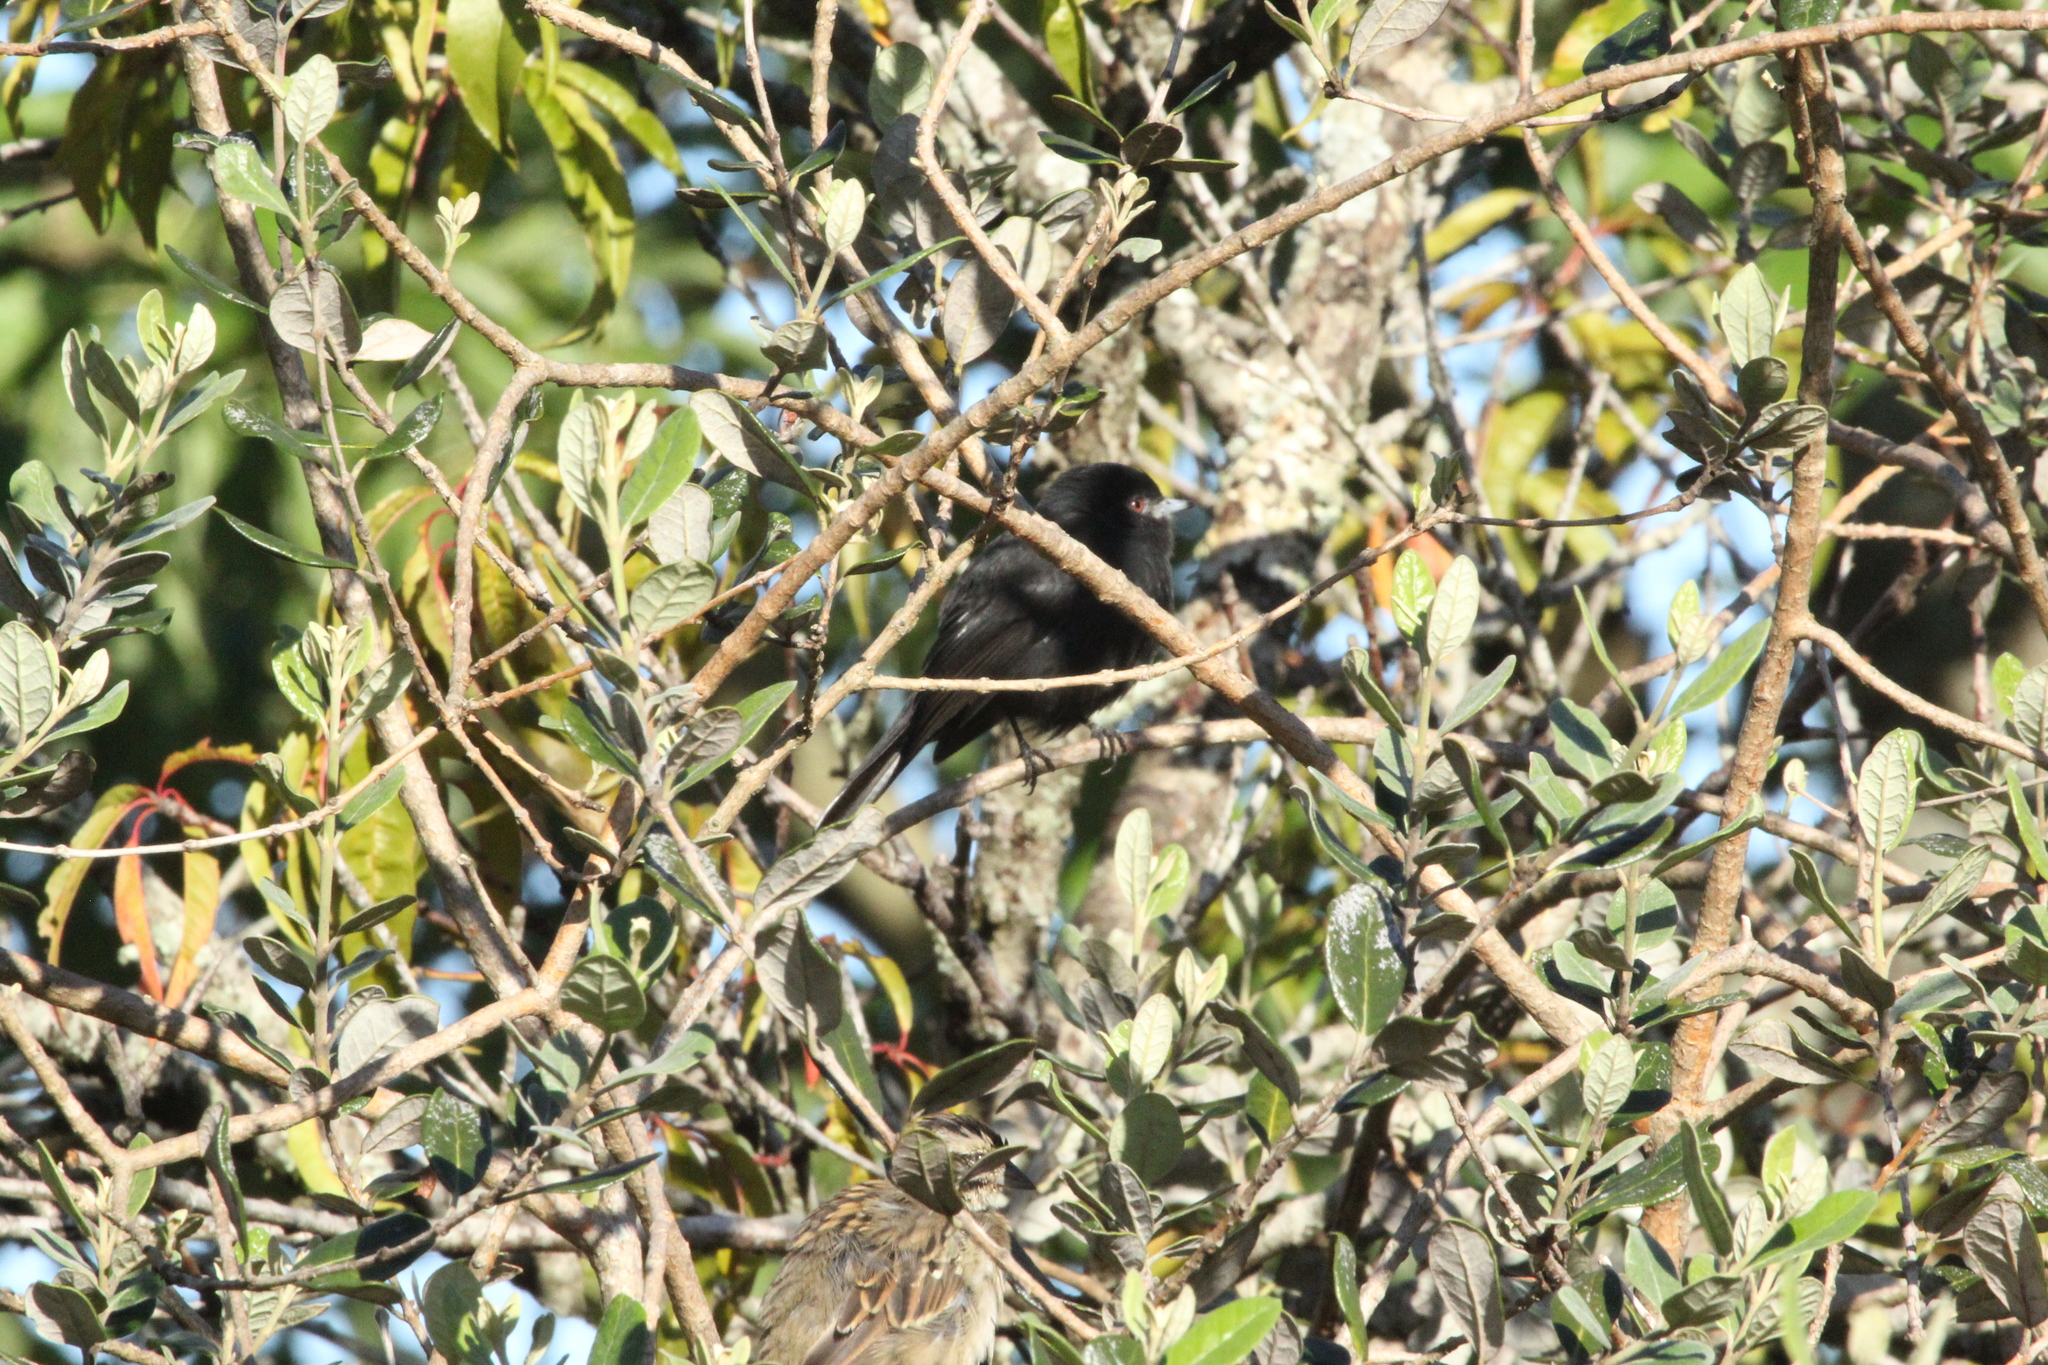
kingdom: Animalia
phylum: Chordata
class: Aves
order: Passeriformes
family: Tyrannidae
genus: Knipolegus
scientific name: Knipolegus cyanirostris
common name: Blue-billed black tyrant
